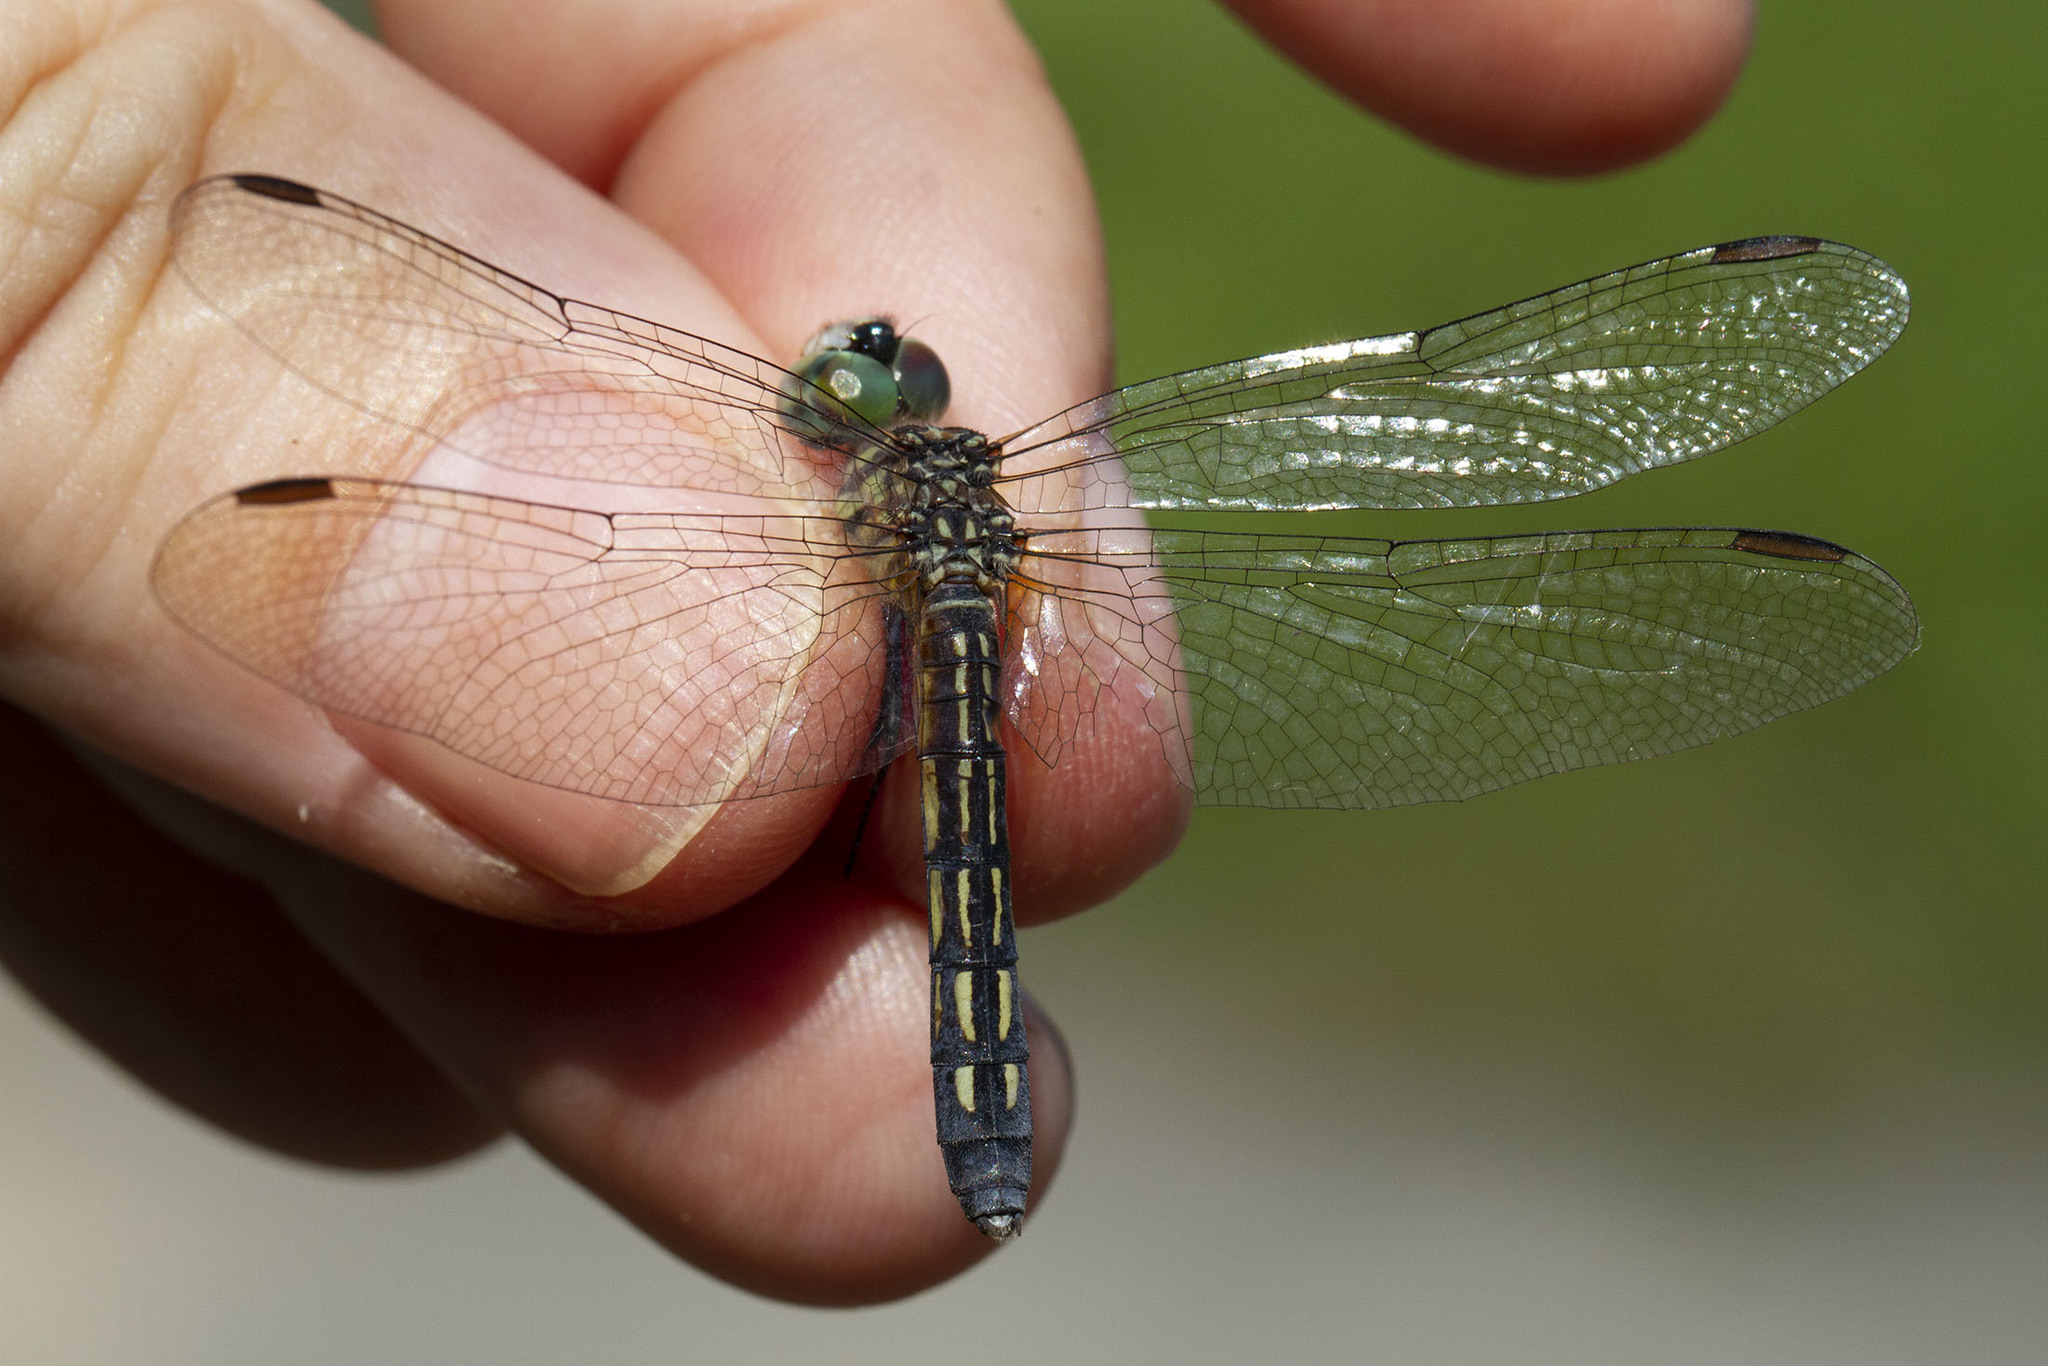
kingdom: Animalia
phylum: Arthropoda
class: Insecta
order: Odonata
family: Libellulidae
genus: Pachydiplax
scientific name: Pachydiplax longipennis
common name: Blue dasher
